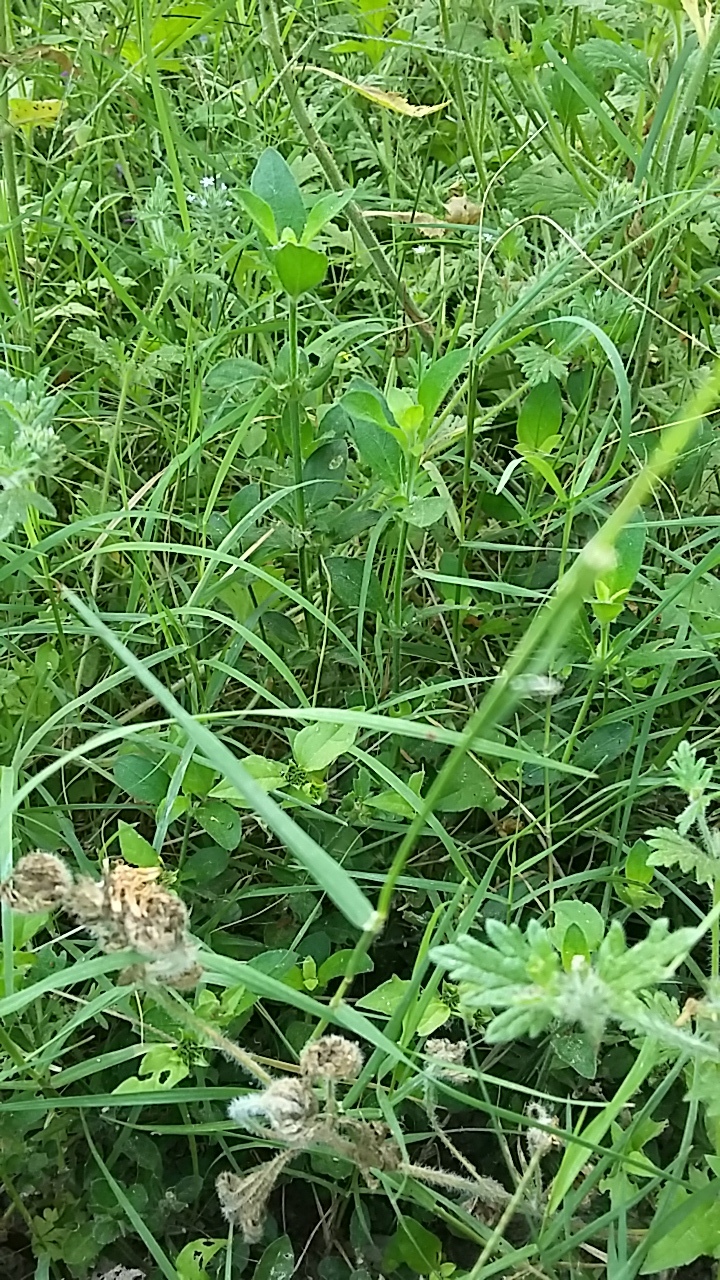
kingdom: Plantae
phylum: Tracheophyta
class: Liliopsida
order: Poales
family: Poaceae
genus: Cynodon
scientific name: Cynodon dactylon
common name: Bermuda grass
